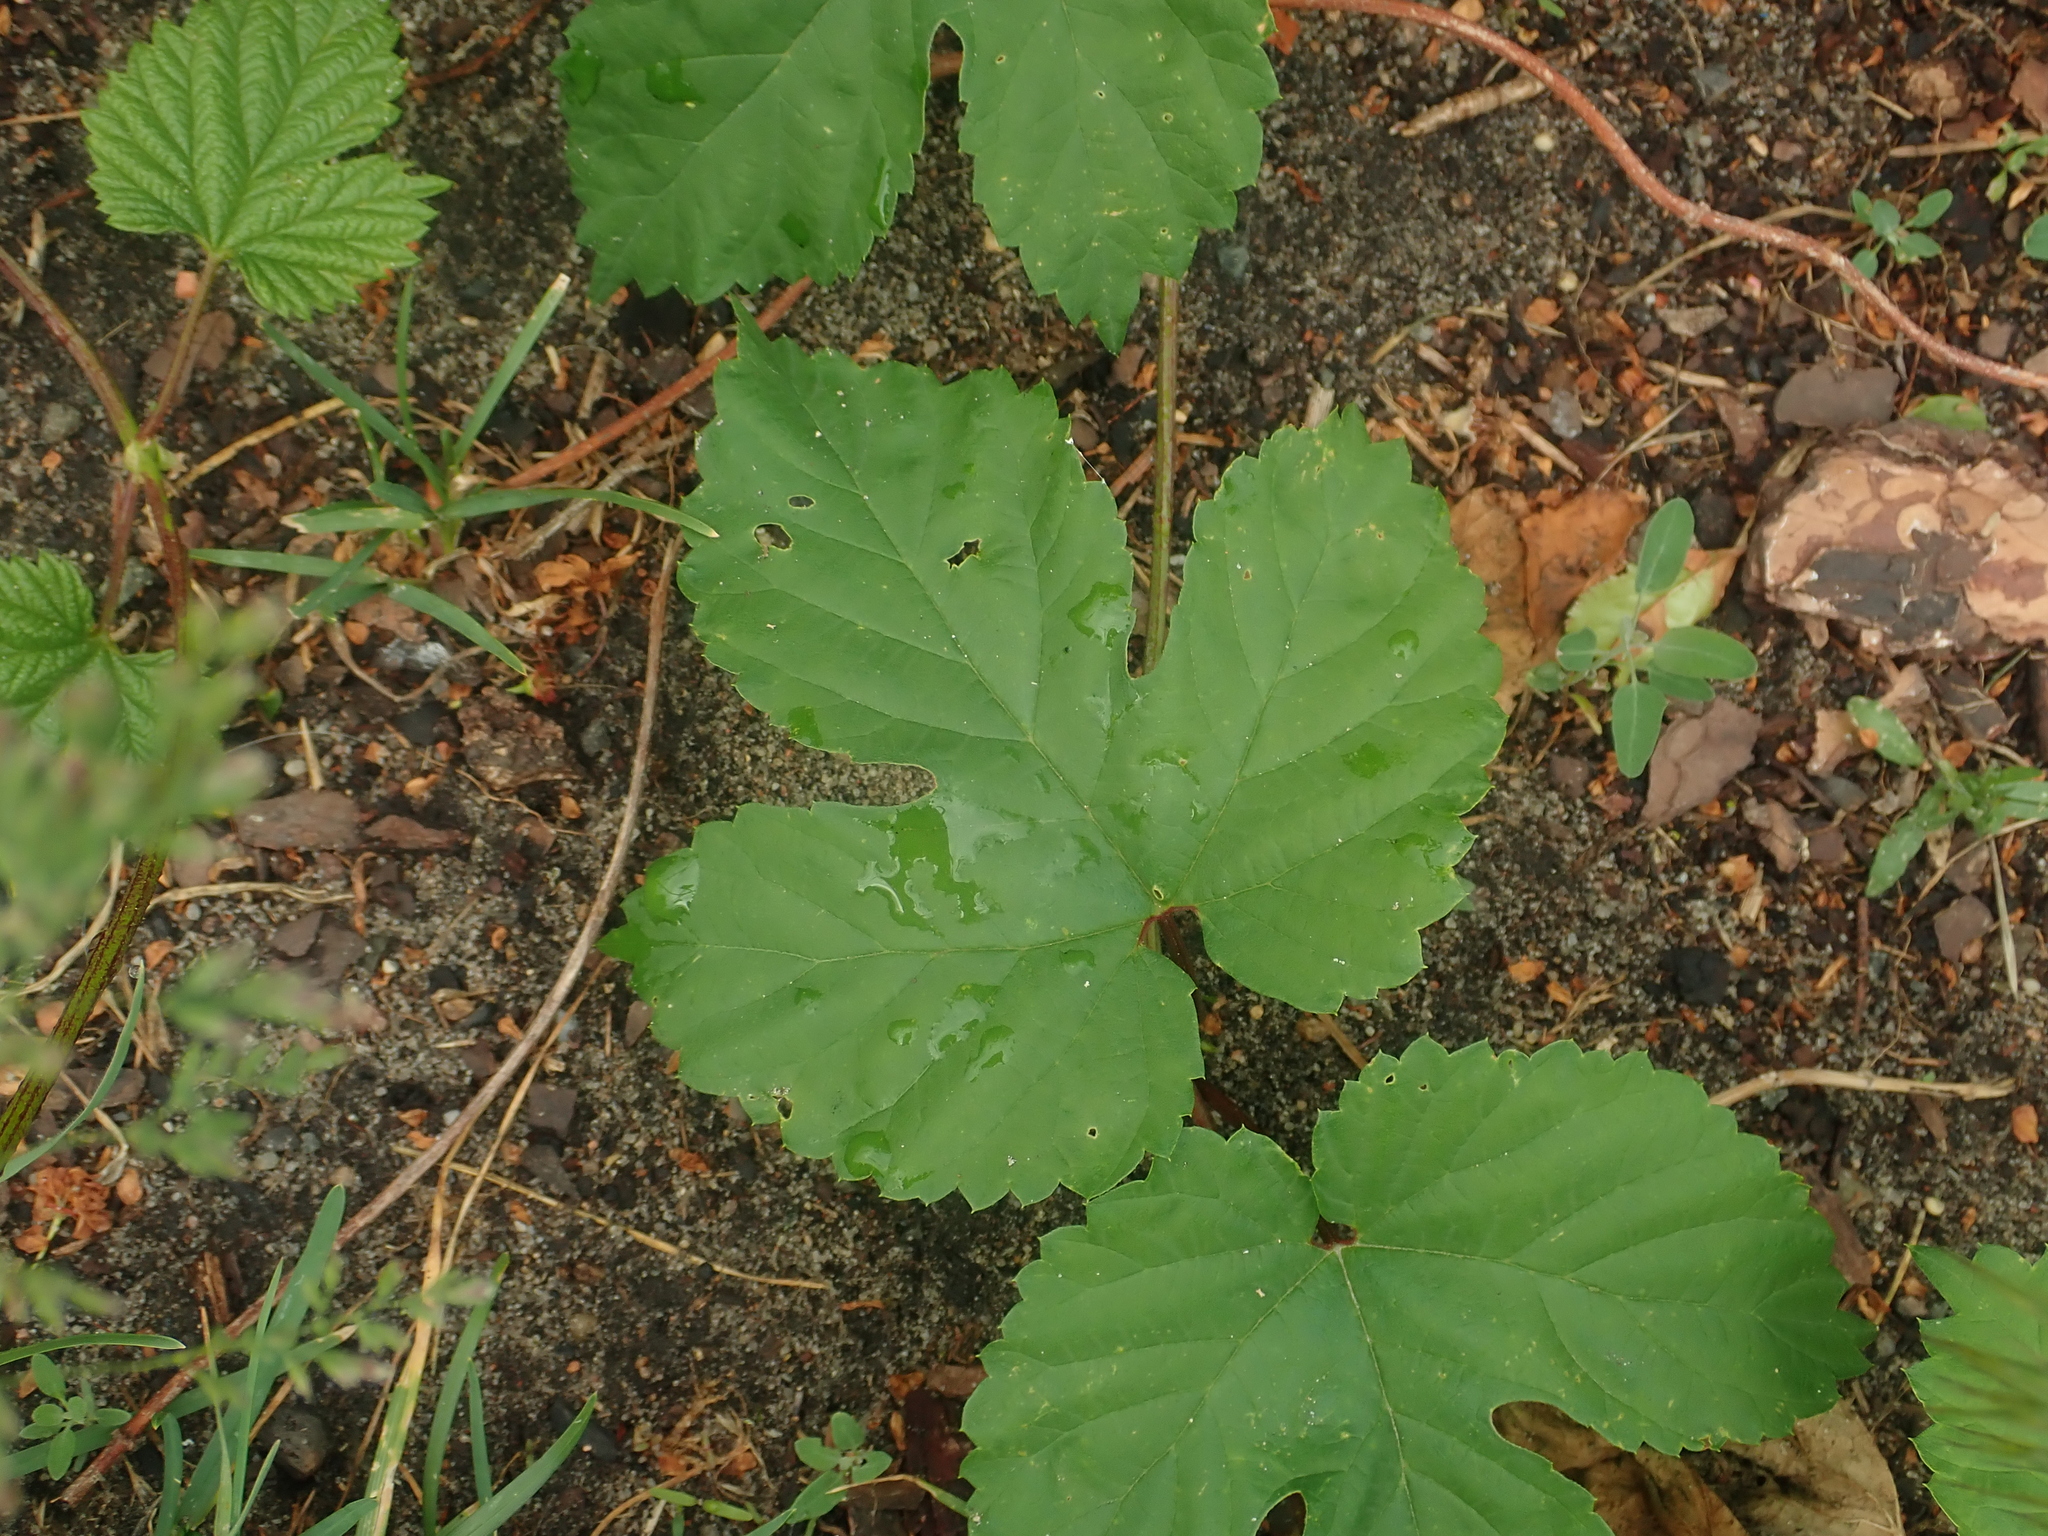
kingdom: Plantae
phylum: Tracheophyta
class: Magnoliopsida
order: Rosales
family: Cannabaceae
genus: Humulus
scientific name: Humulus lupulus
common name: Hop
